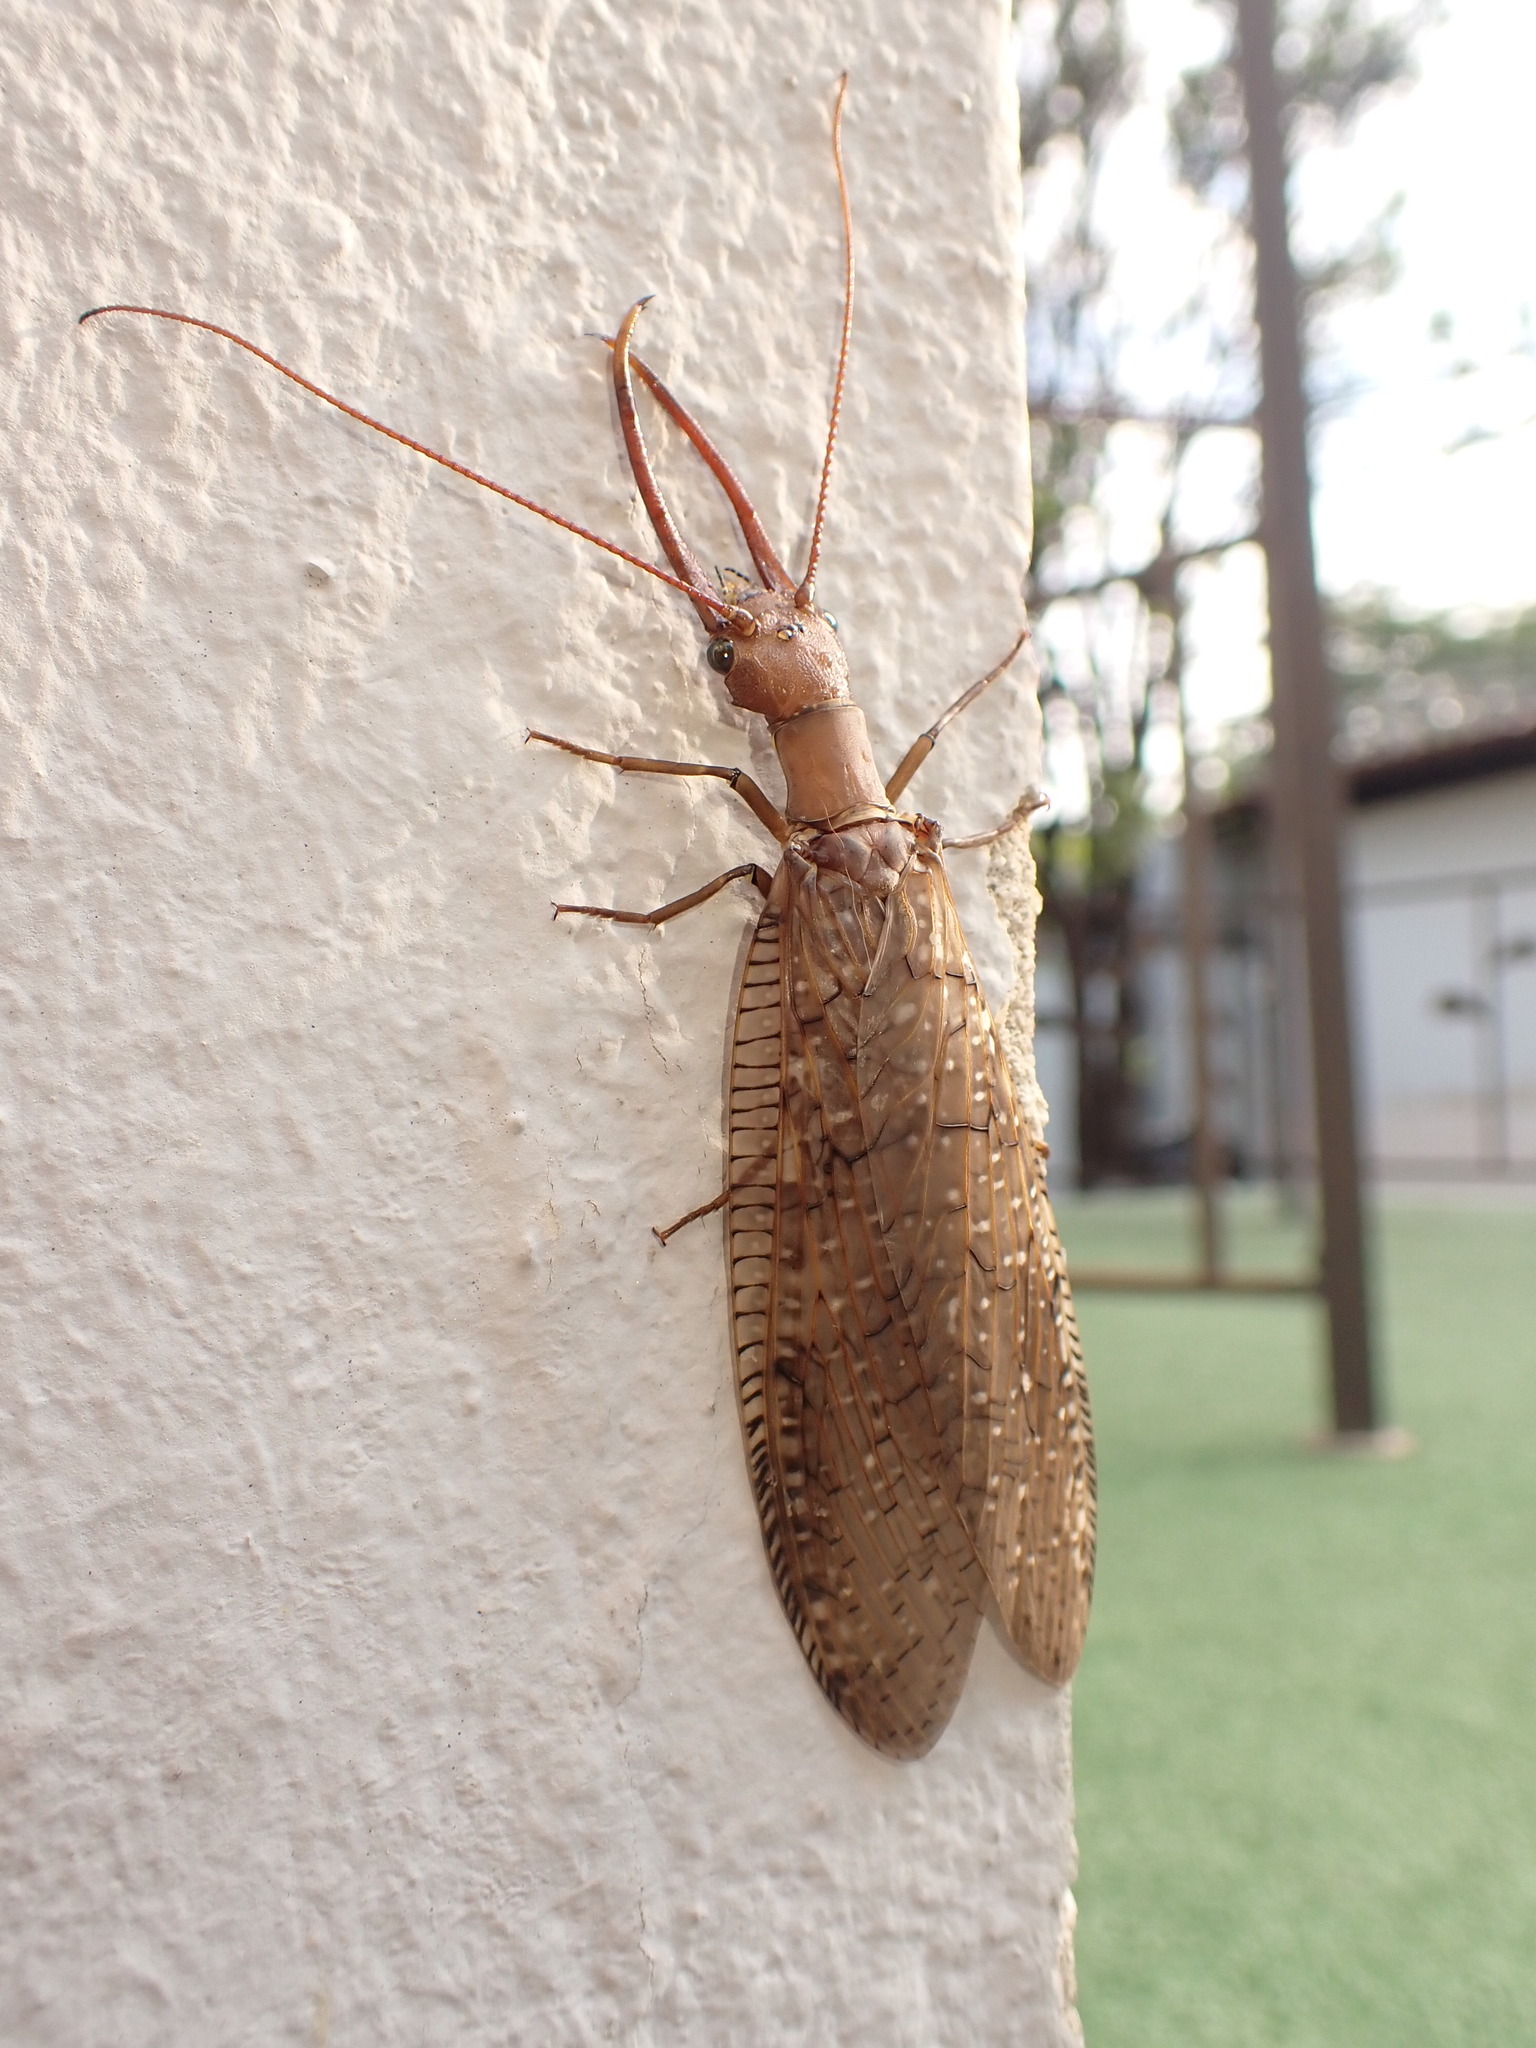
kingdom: Animalia
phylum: Arthropoda
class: Insecta
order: Megaloptera
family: Corydalidae
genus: Corydalus
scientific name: Corydalus australis
